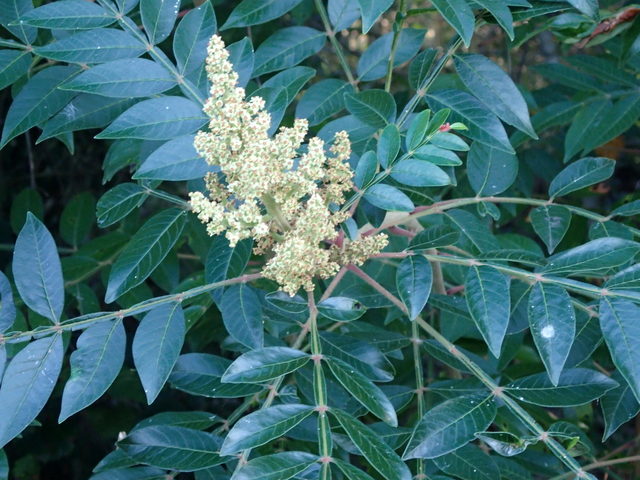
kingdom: Plantae
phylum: Tracheophyta
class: Magnoliopsida
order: Sapindales
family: Anacardiaceae
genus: Rhus
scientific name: Rhus copallina
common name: Shining sumac
